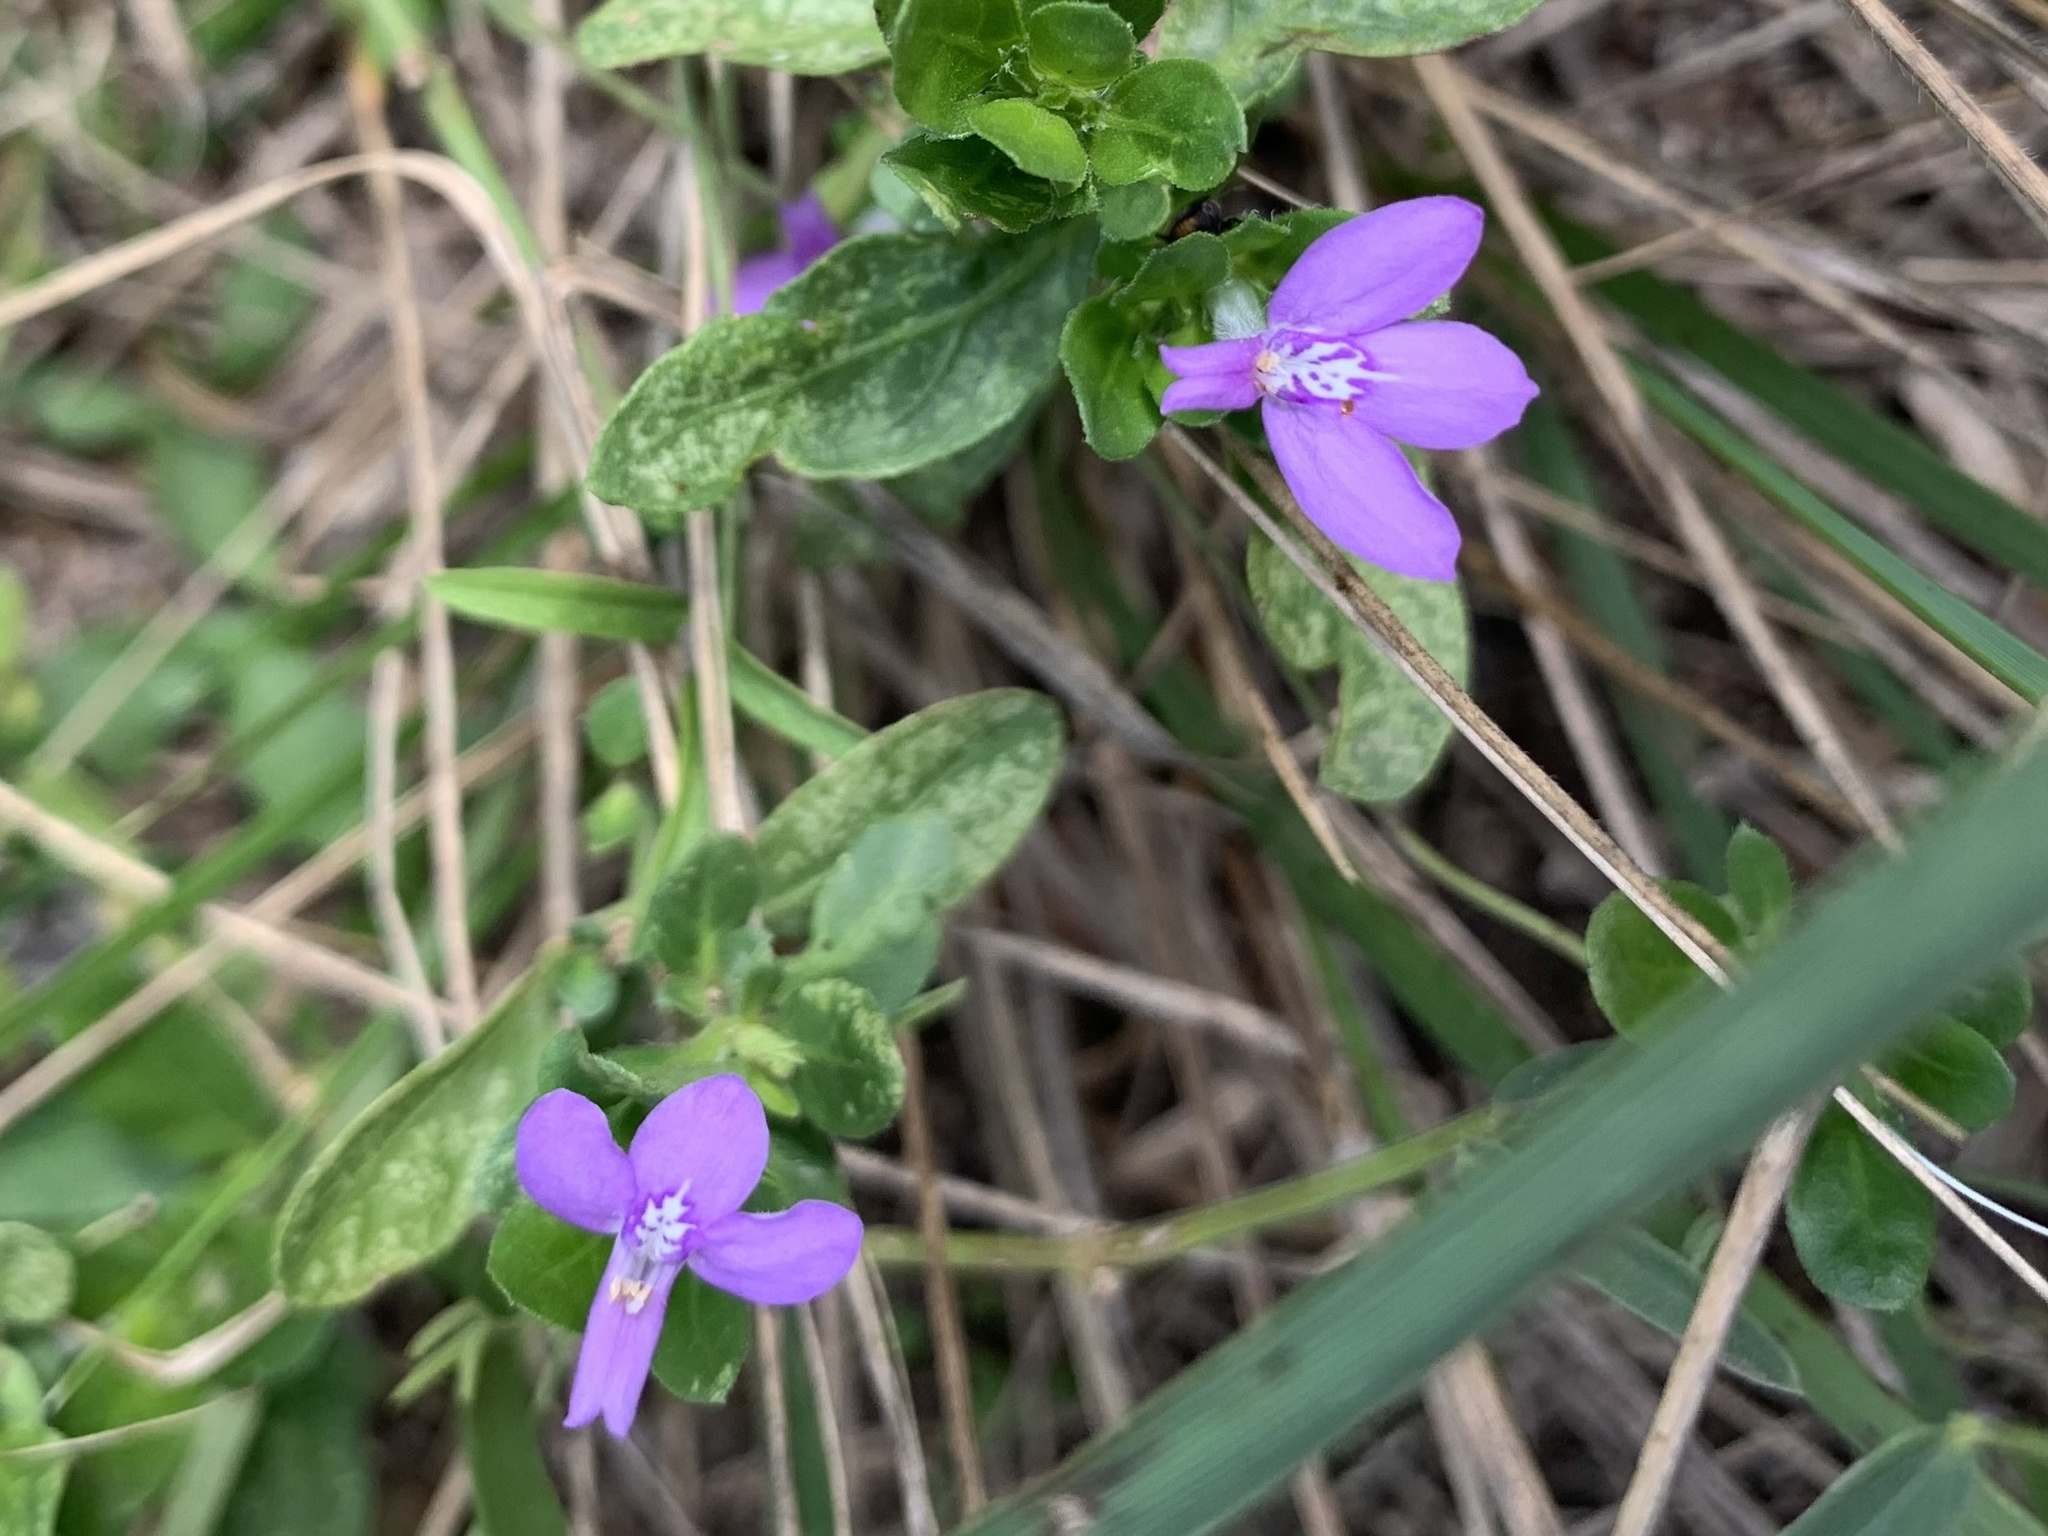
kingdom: Plantae
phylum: Tracheophyta
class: Magnoliopsida
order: Lamiales
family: Acanthaceae
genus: Justicia
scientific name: Justicia pilosella
